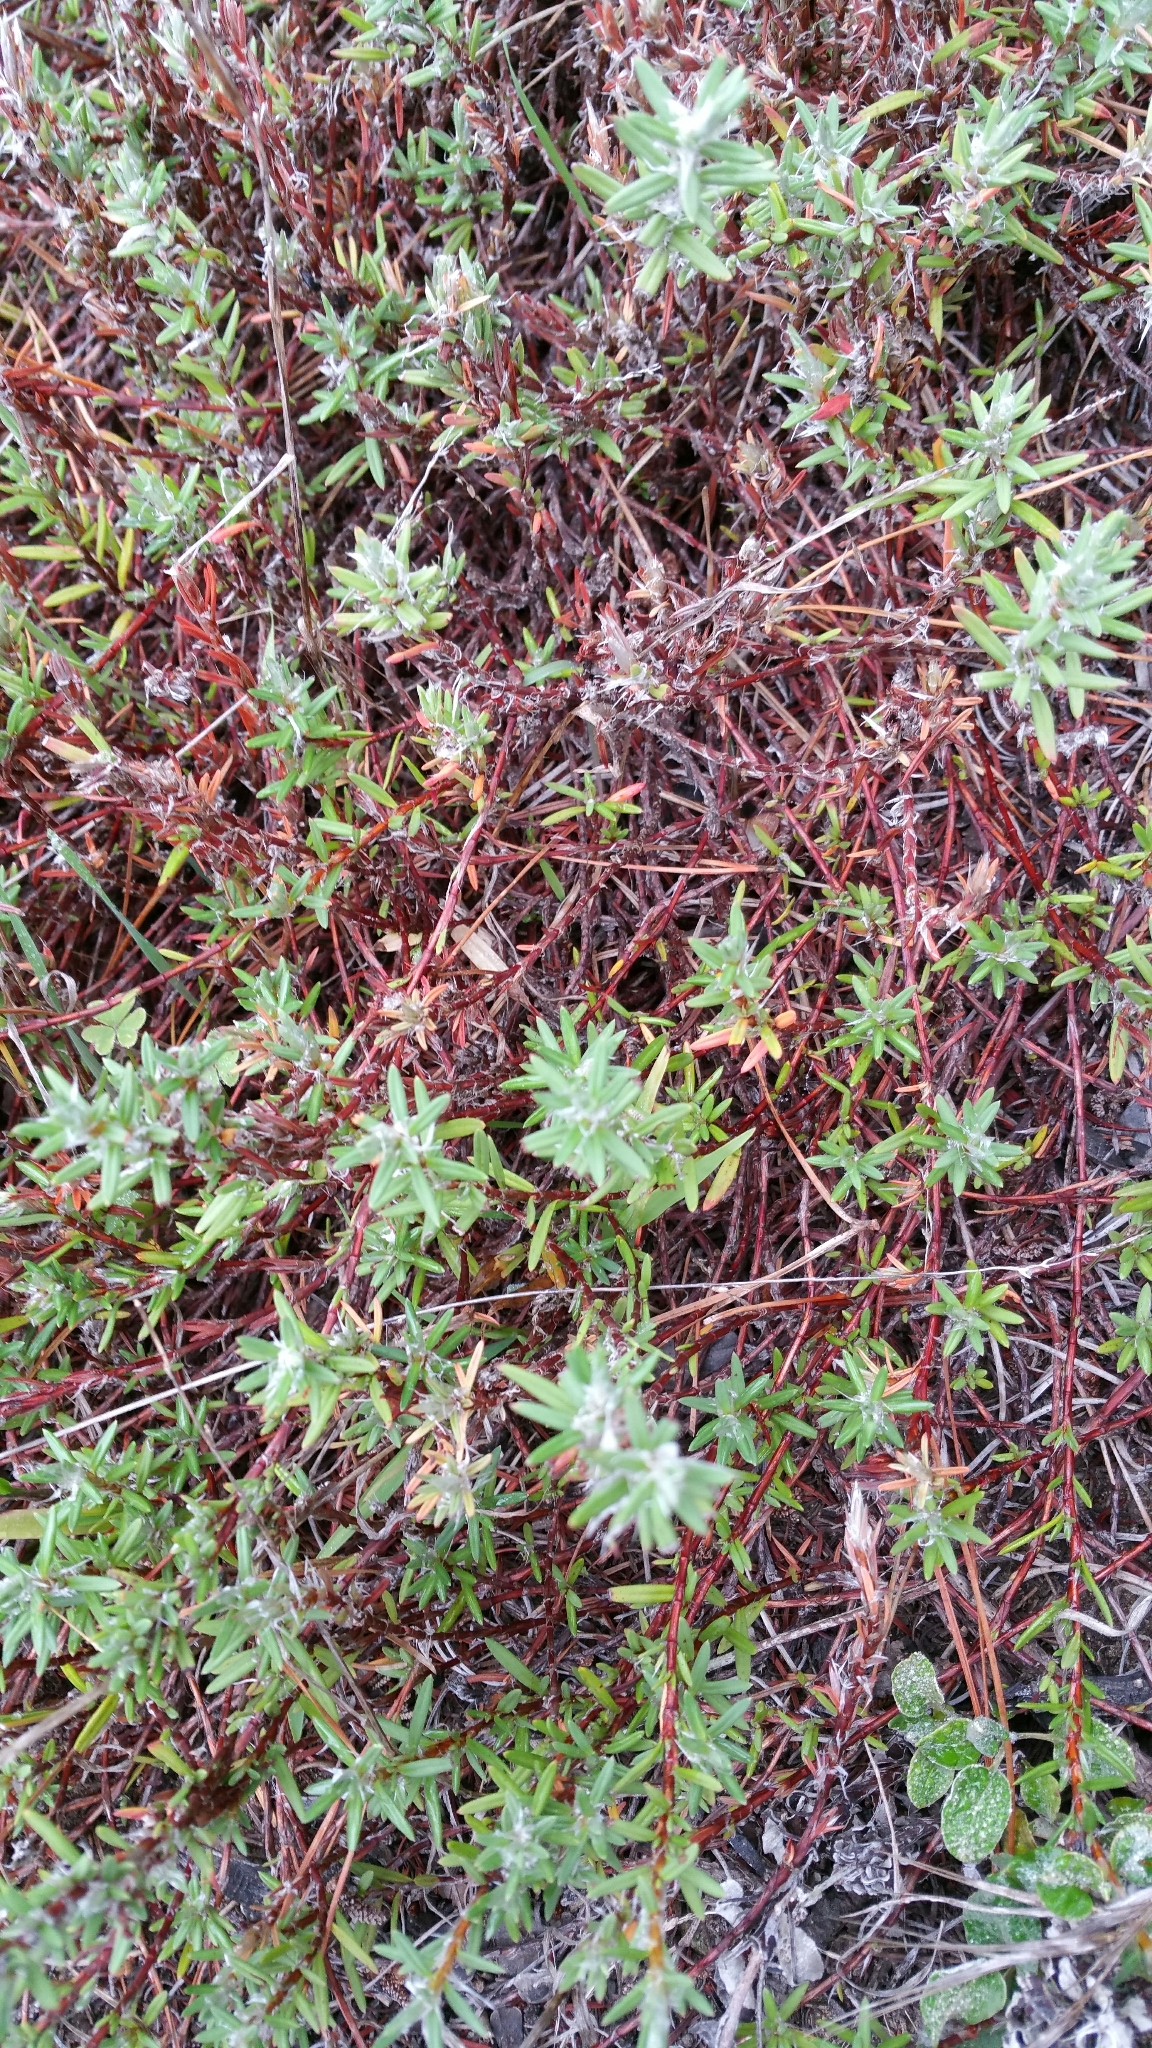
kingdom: Plantae
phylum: Tracheophyta
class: Magnoliopsida
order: Caryophyllales
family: Polygonaceae
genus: Polygonum
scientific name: Polygonum paronychia
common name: Dune knotweed
